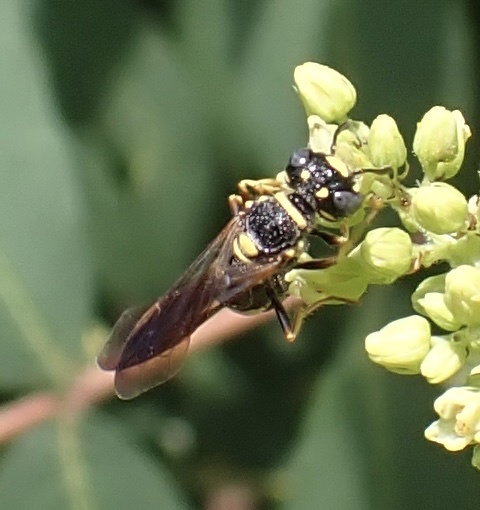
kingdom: Animalia
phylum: Arthropoda
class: Insecta
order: Hymenoptera
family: Crabronidae
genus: Philanthus
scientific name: Philanthus gibbosus
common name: Humped beewolf
